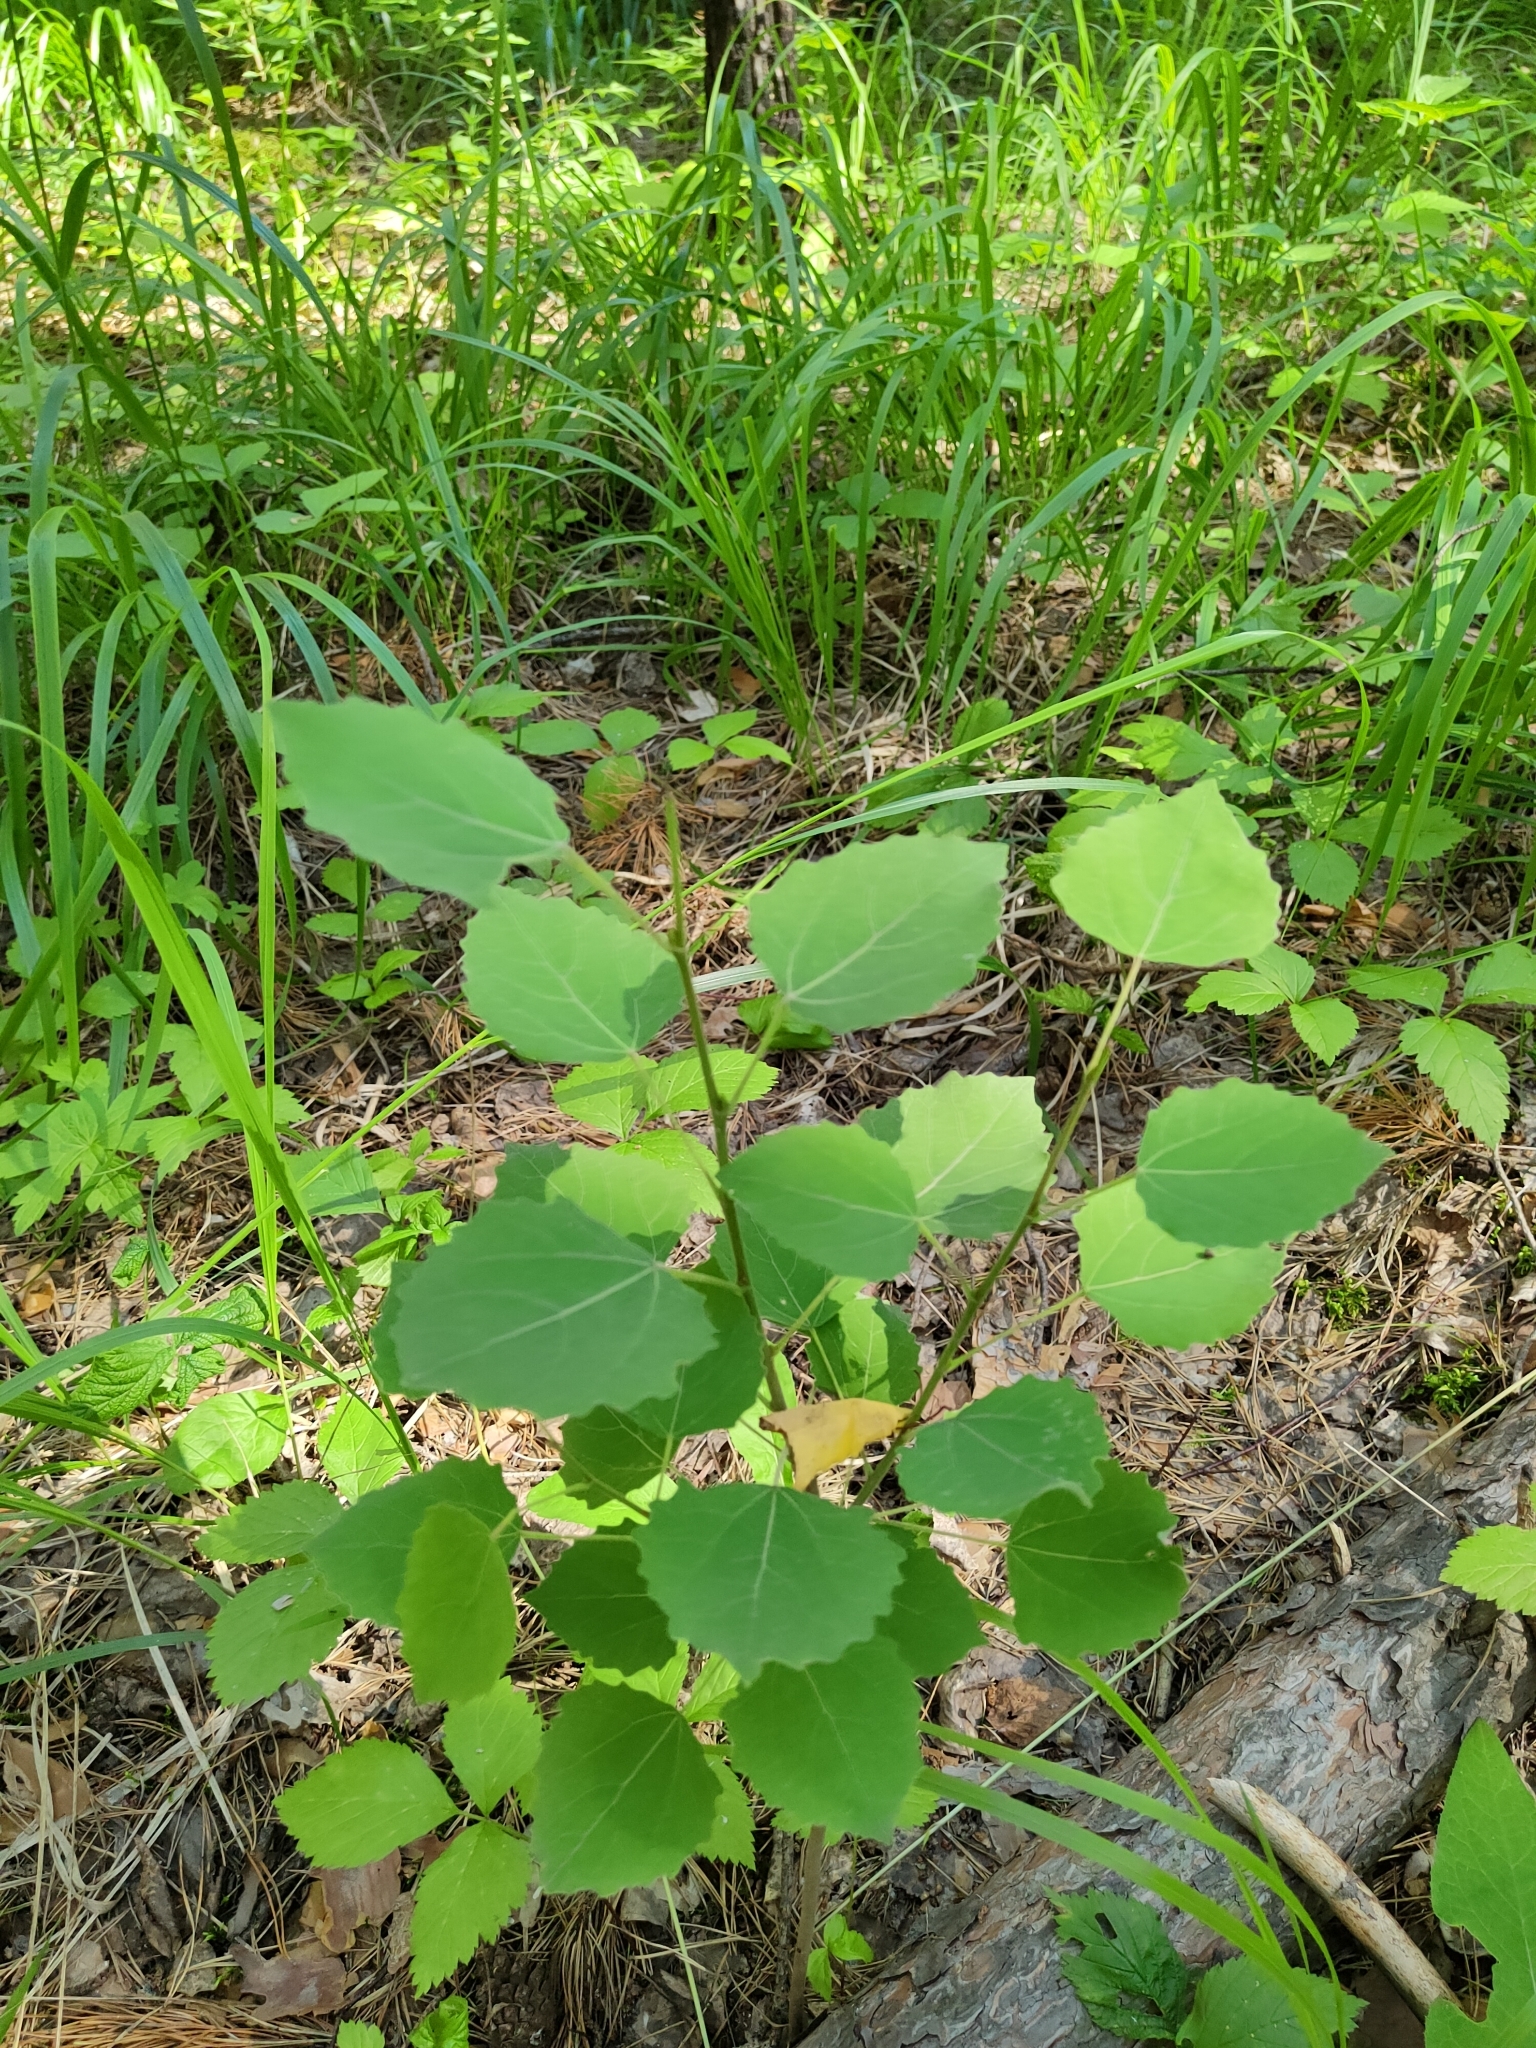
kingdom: Plantae
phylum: Tracheophyta
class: Magnoliopsida
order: Malpighiales
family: Salicaceae
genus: Populus
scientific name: Populus tremula
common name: European aspen
